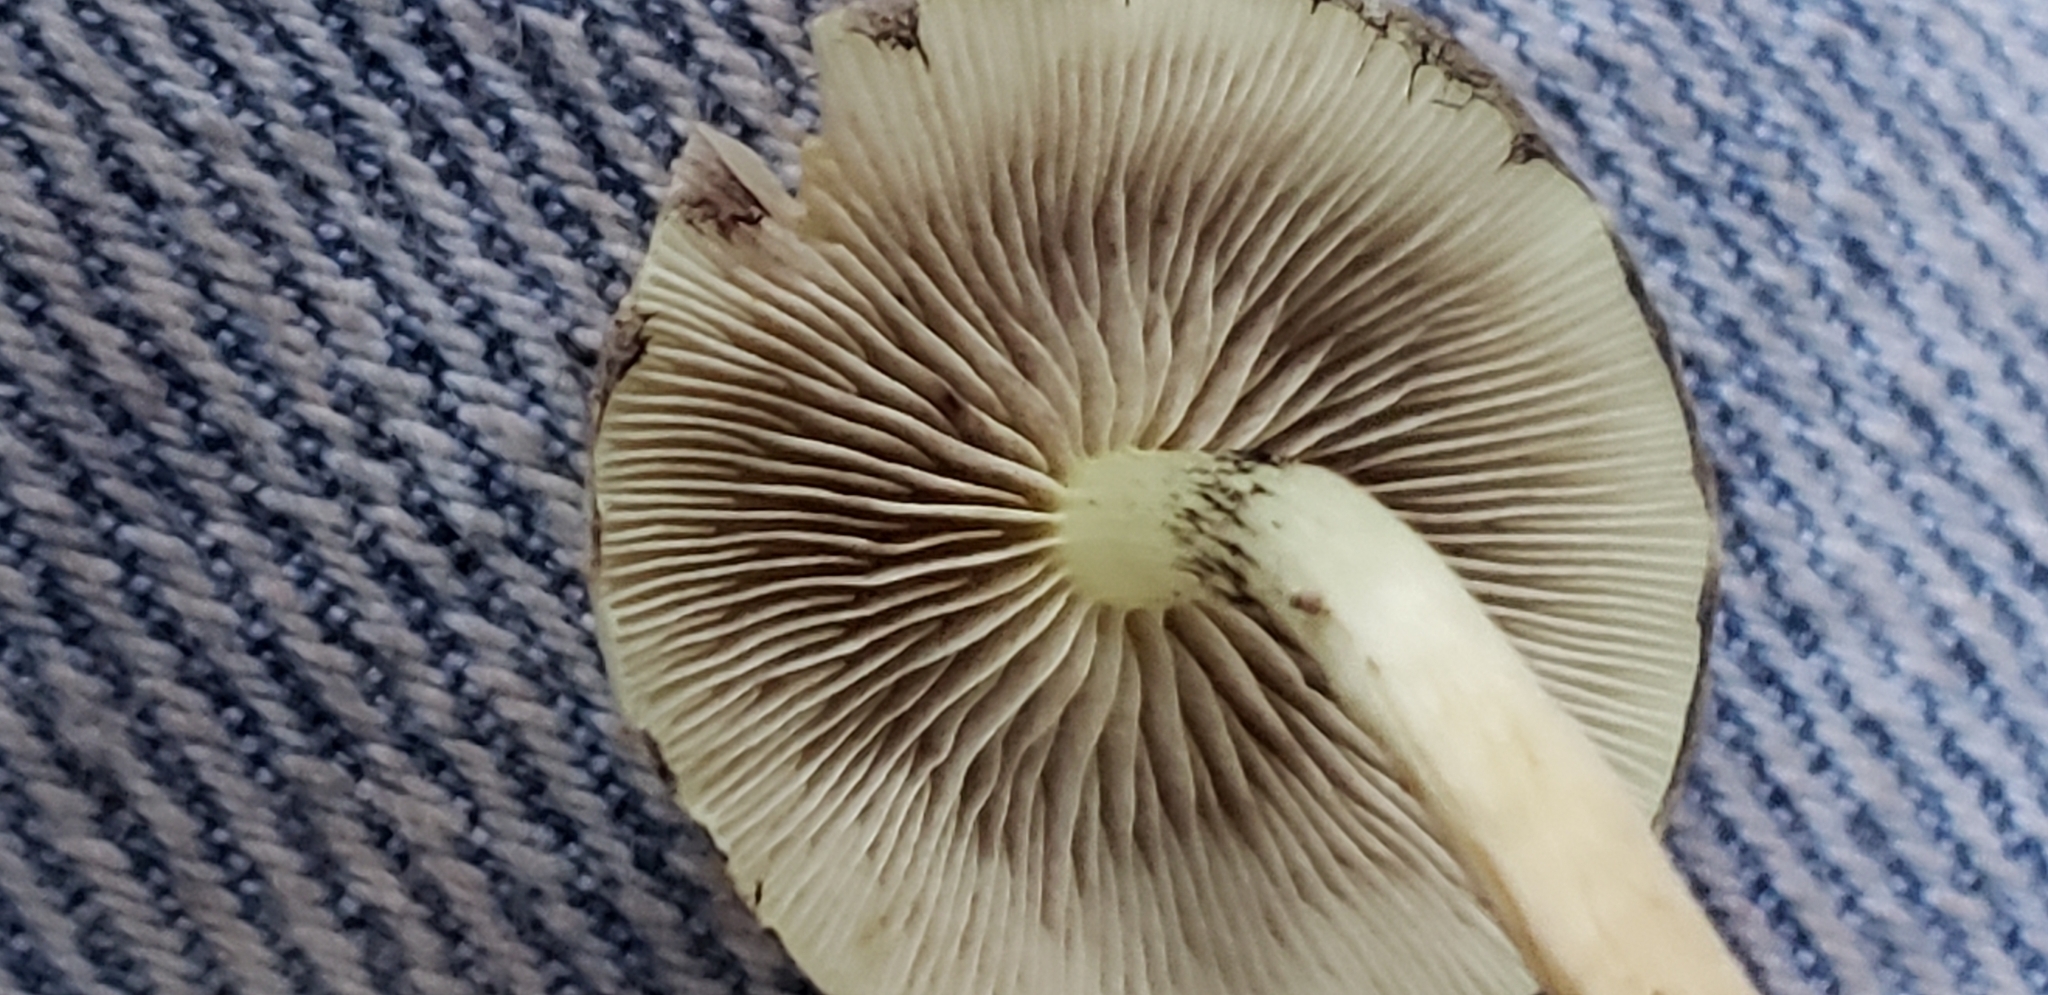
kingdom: Fungi
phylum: Basidiomycota
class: Agaricomycetes
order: Agaricales
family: Strophariaceae
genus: Hypholoma
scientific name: Hypholoma fasciculare
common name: Sulphur tuft
